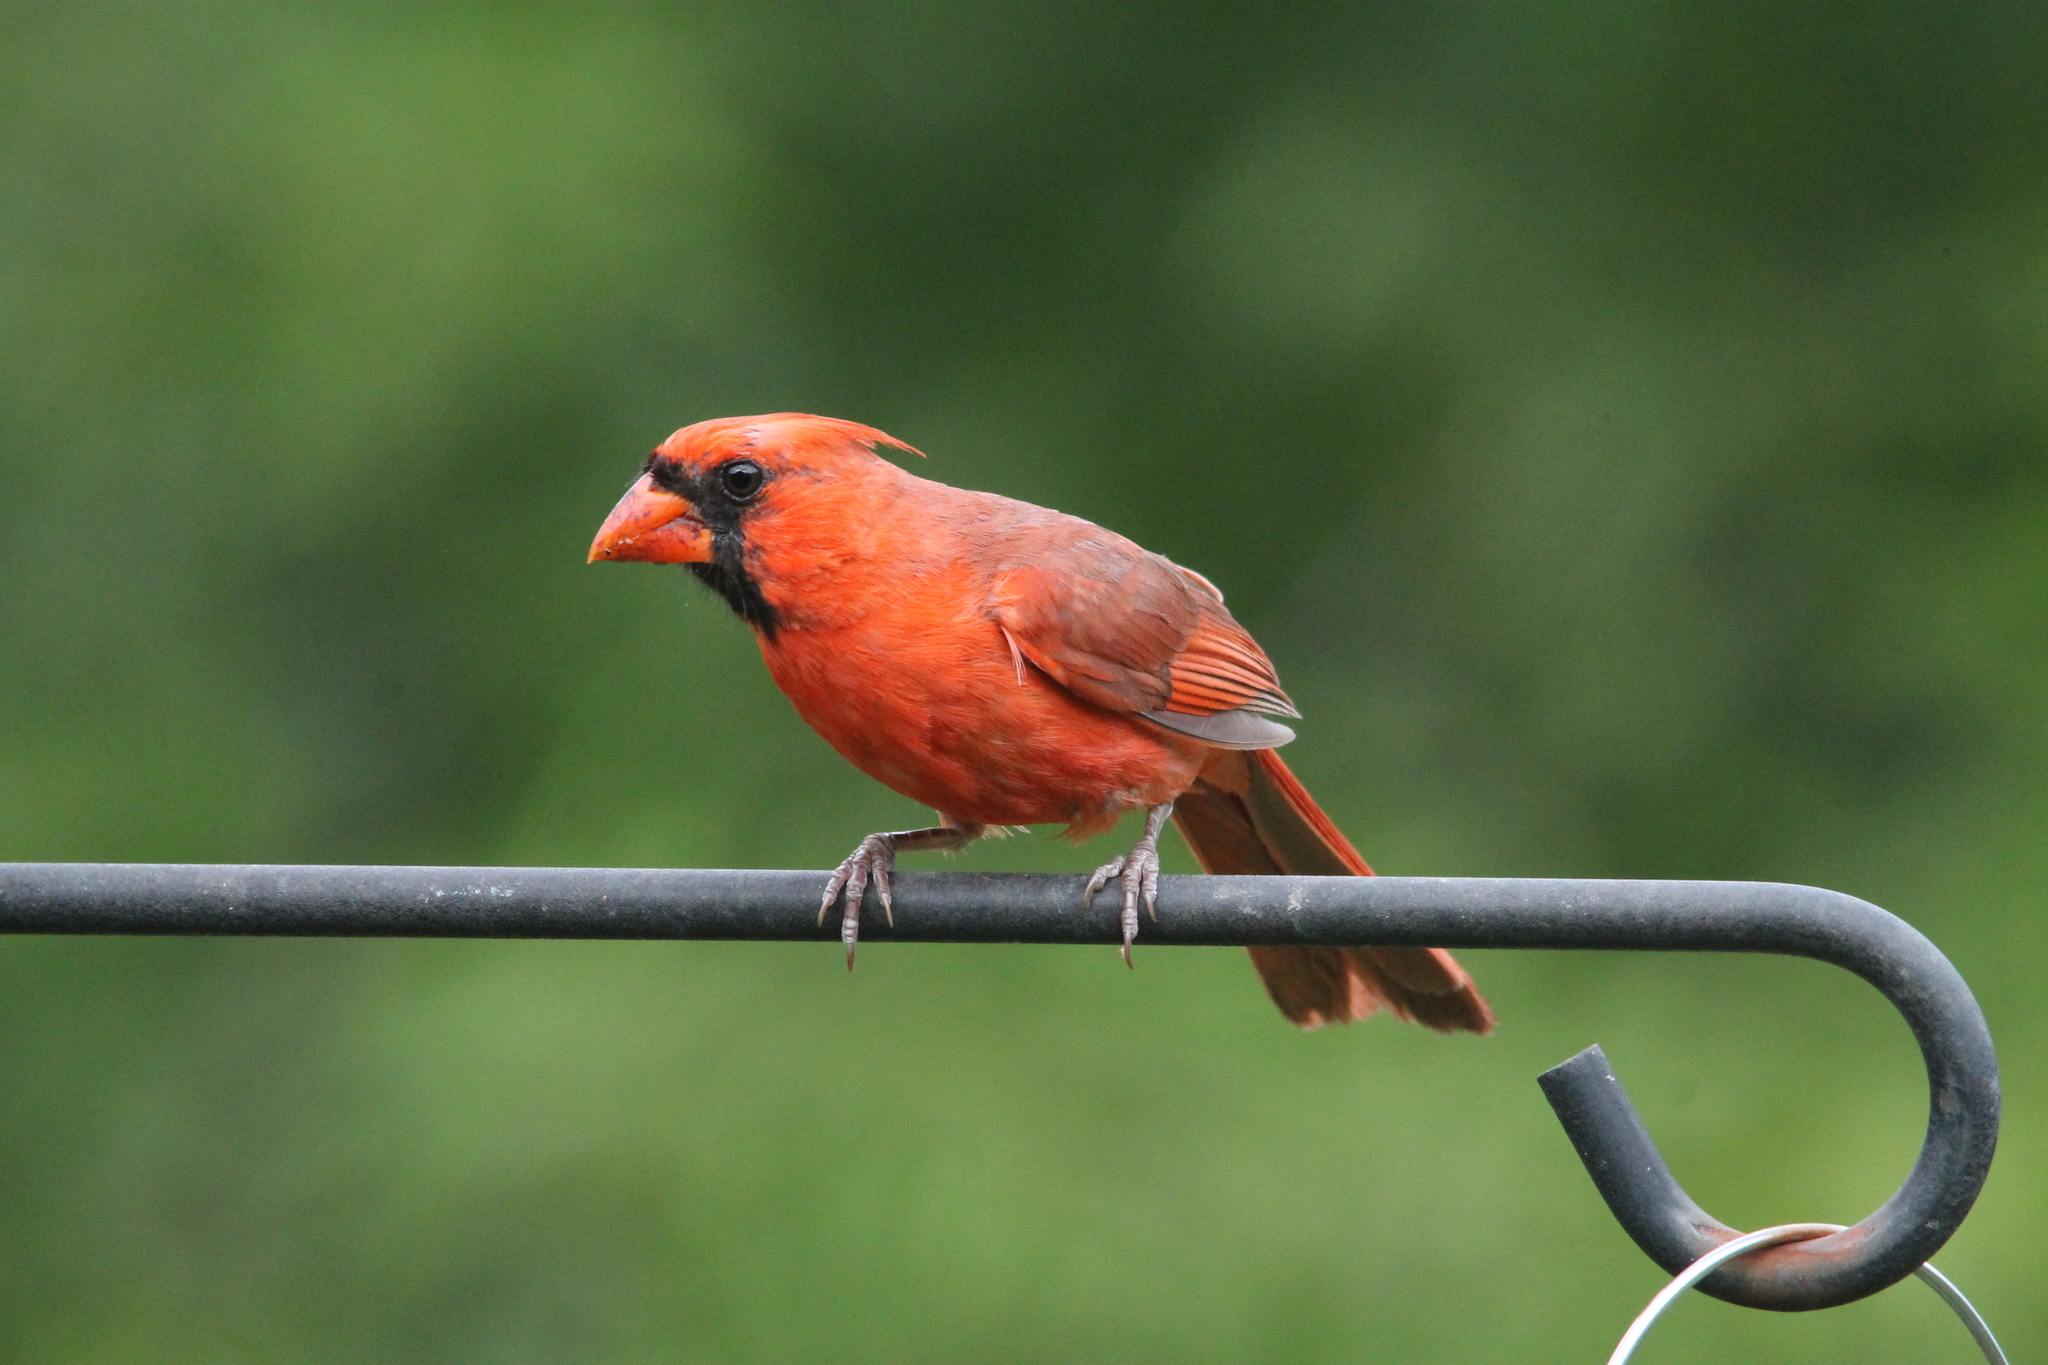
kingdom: Animalia
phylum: Chordata
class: Aves
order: Passeriformes
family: Cardinalidae
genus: Cardinalis
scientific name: Cardinalis cardinalis
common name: Northern cardinal
